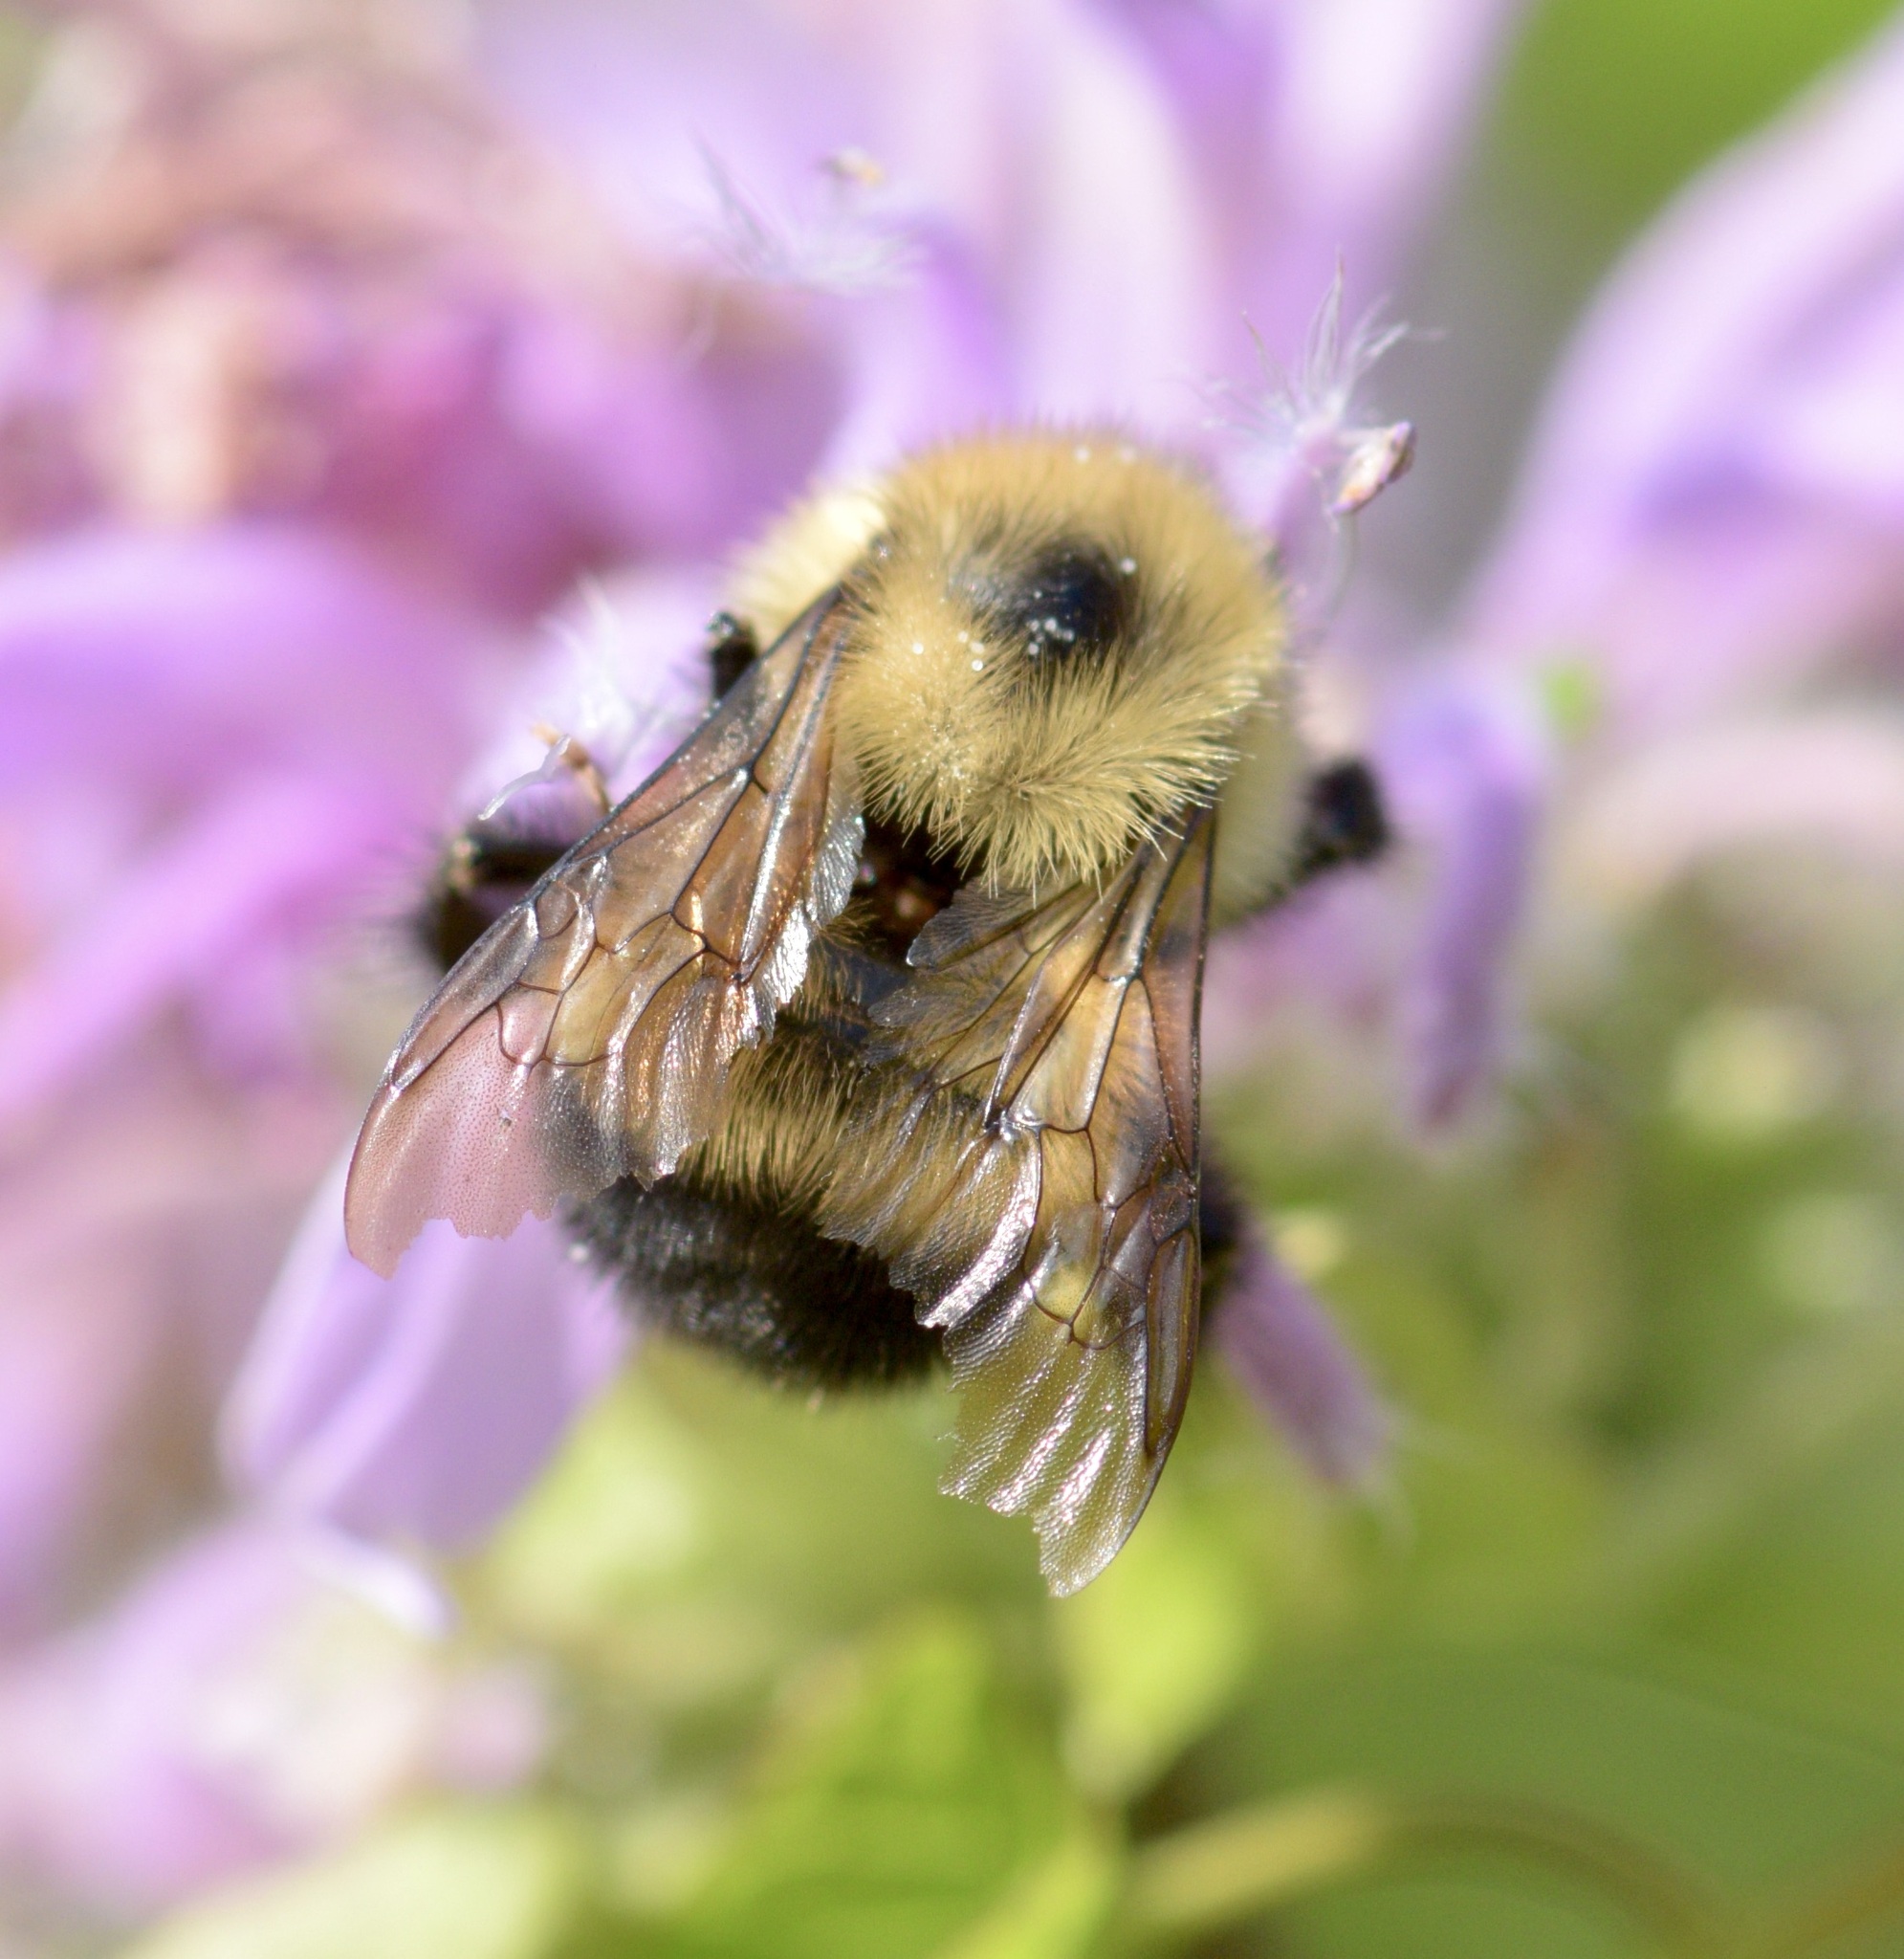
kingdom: Animalia
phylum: Arthropoda
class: Insecta
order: Hymenoptera
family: Apidae
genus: Pyrobombus
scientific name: Pyrobombus
